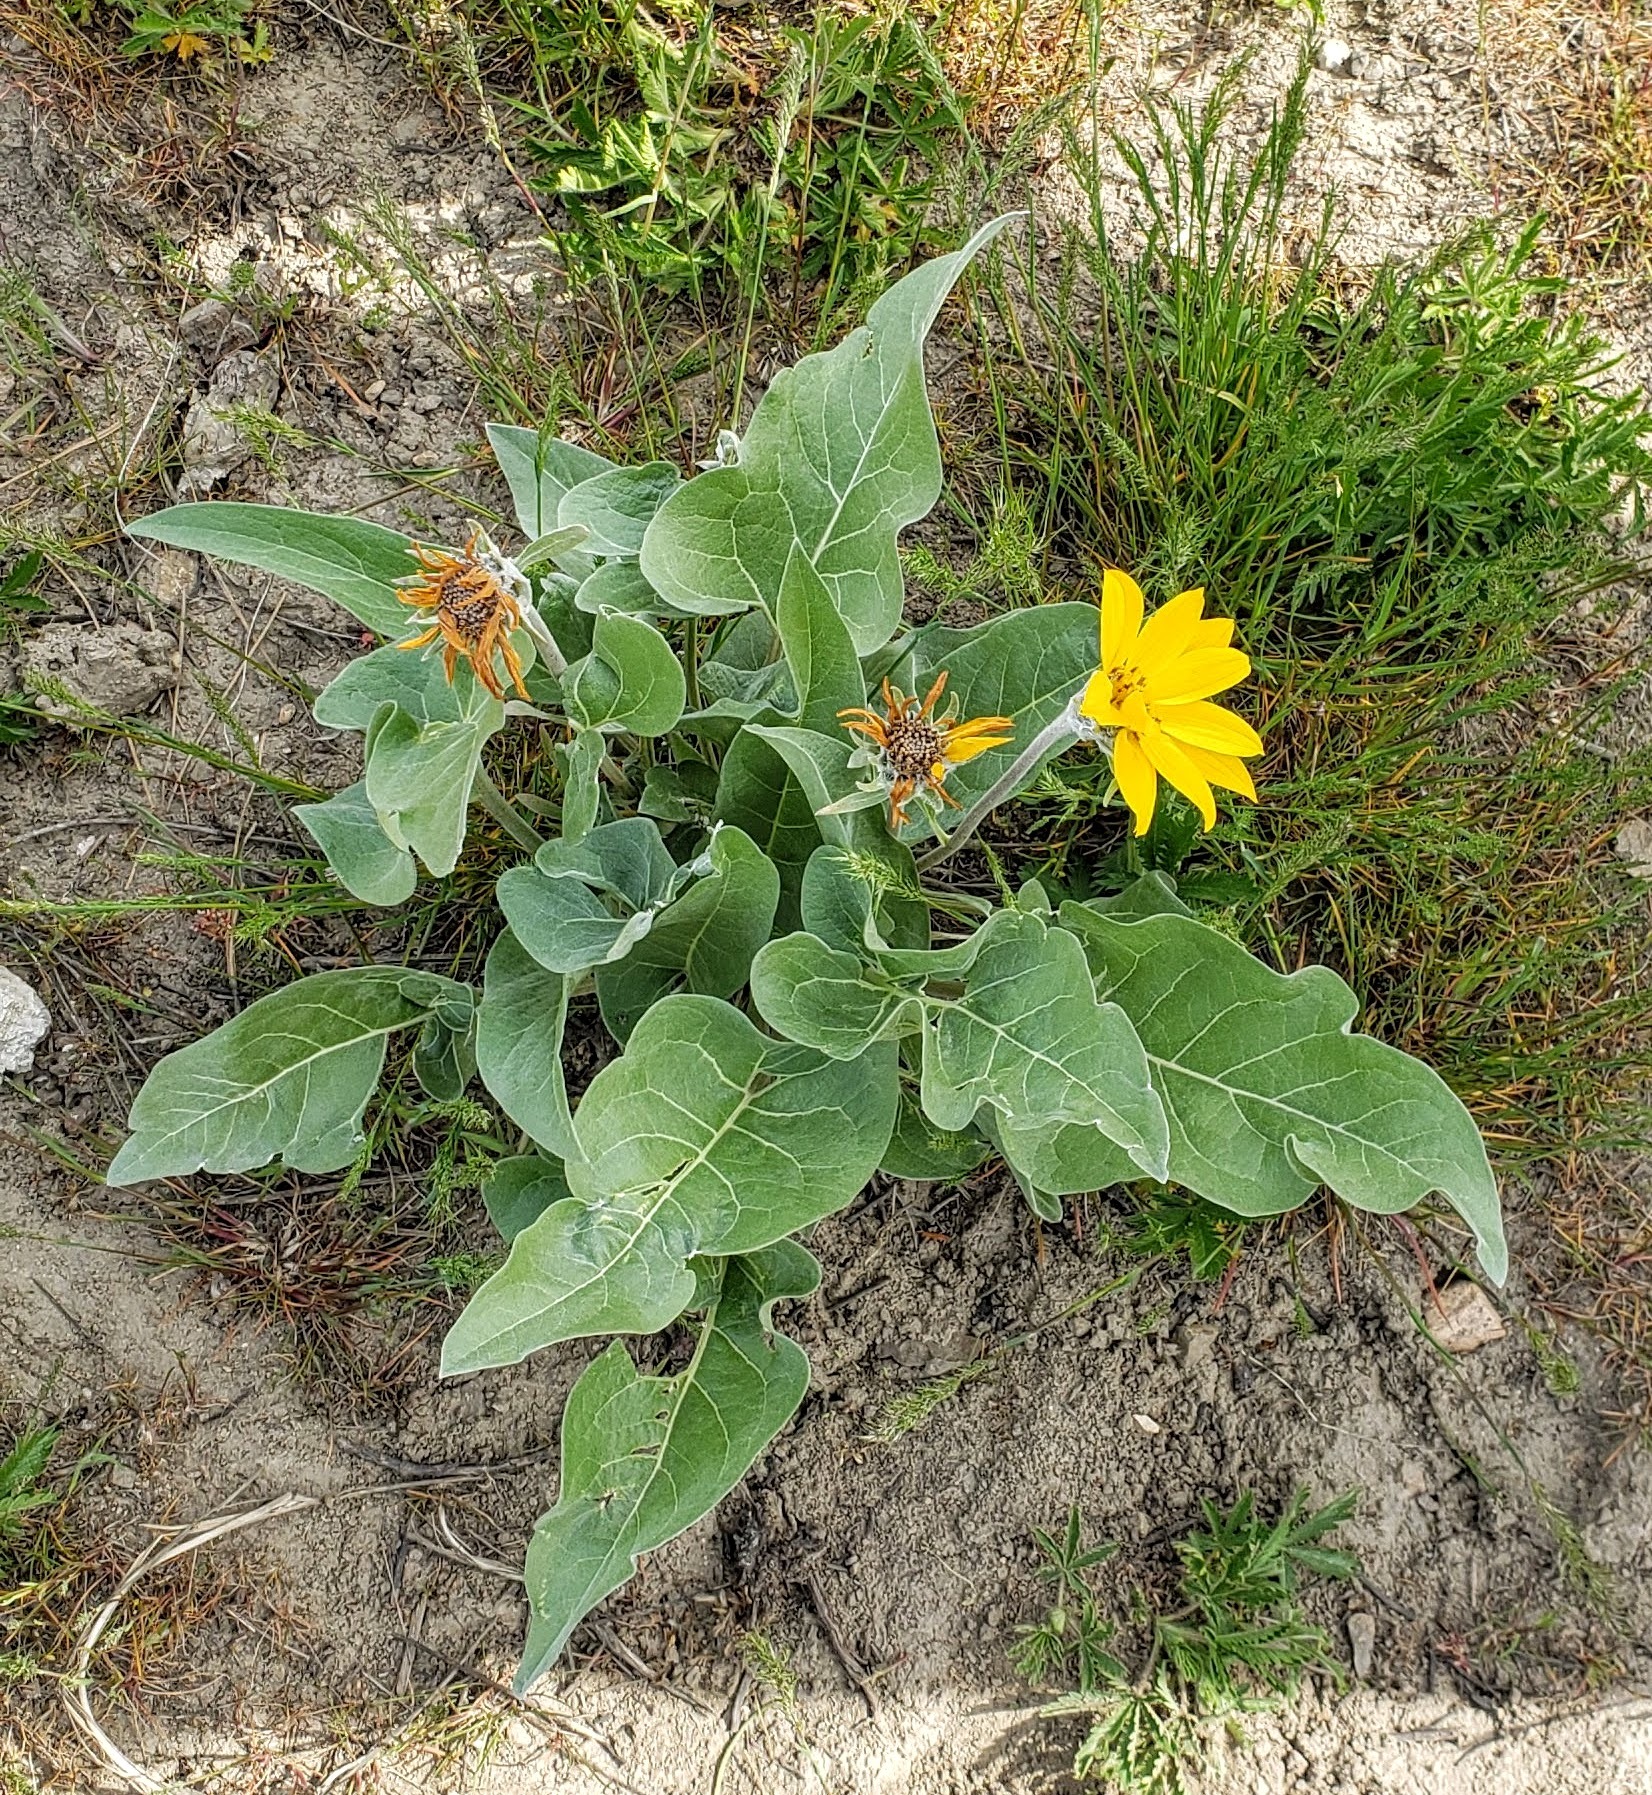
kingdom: Plantae
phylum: Tracheophyta
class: Magnoliopsida
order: Asterales
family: Asteraceae
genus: Wyethia
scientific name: Wyethia sagittata
